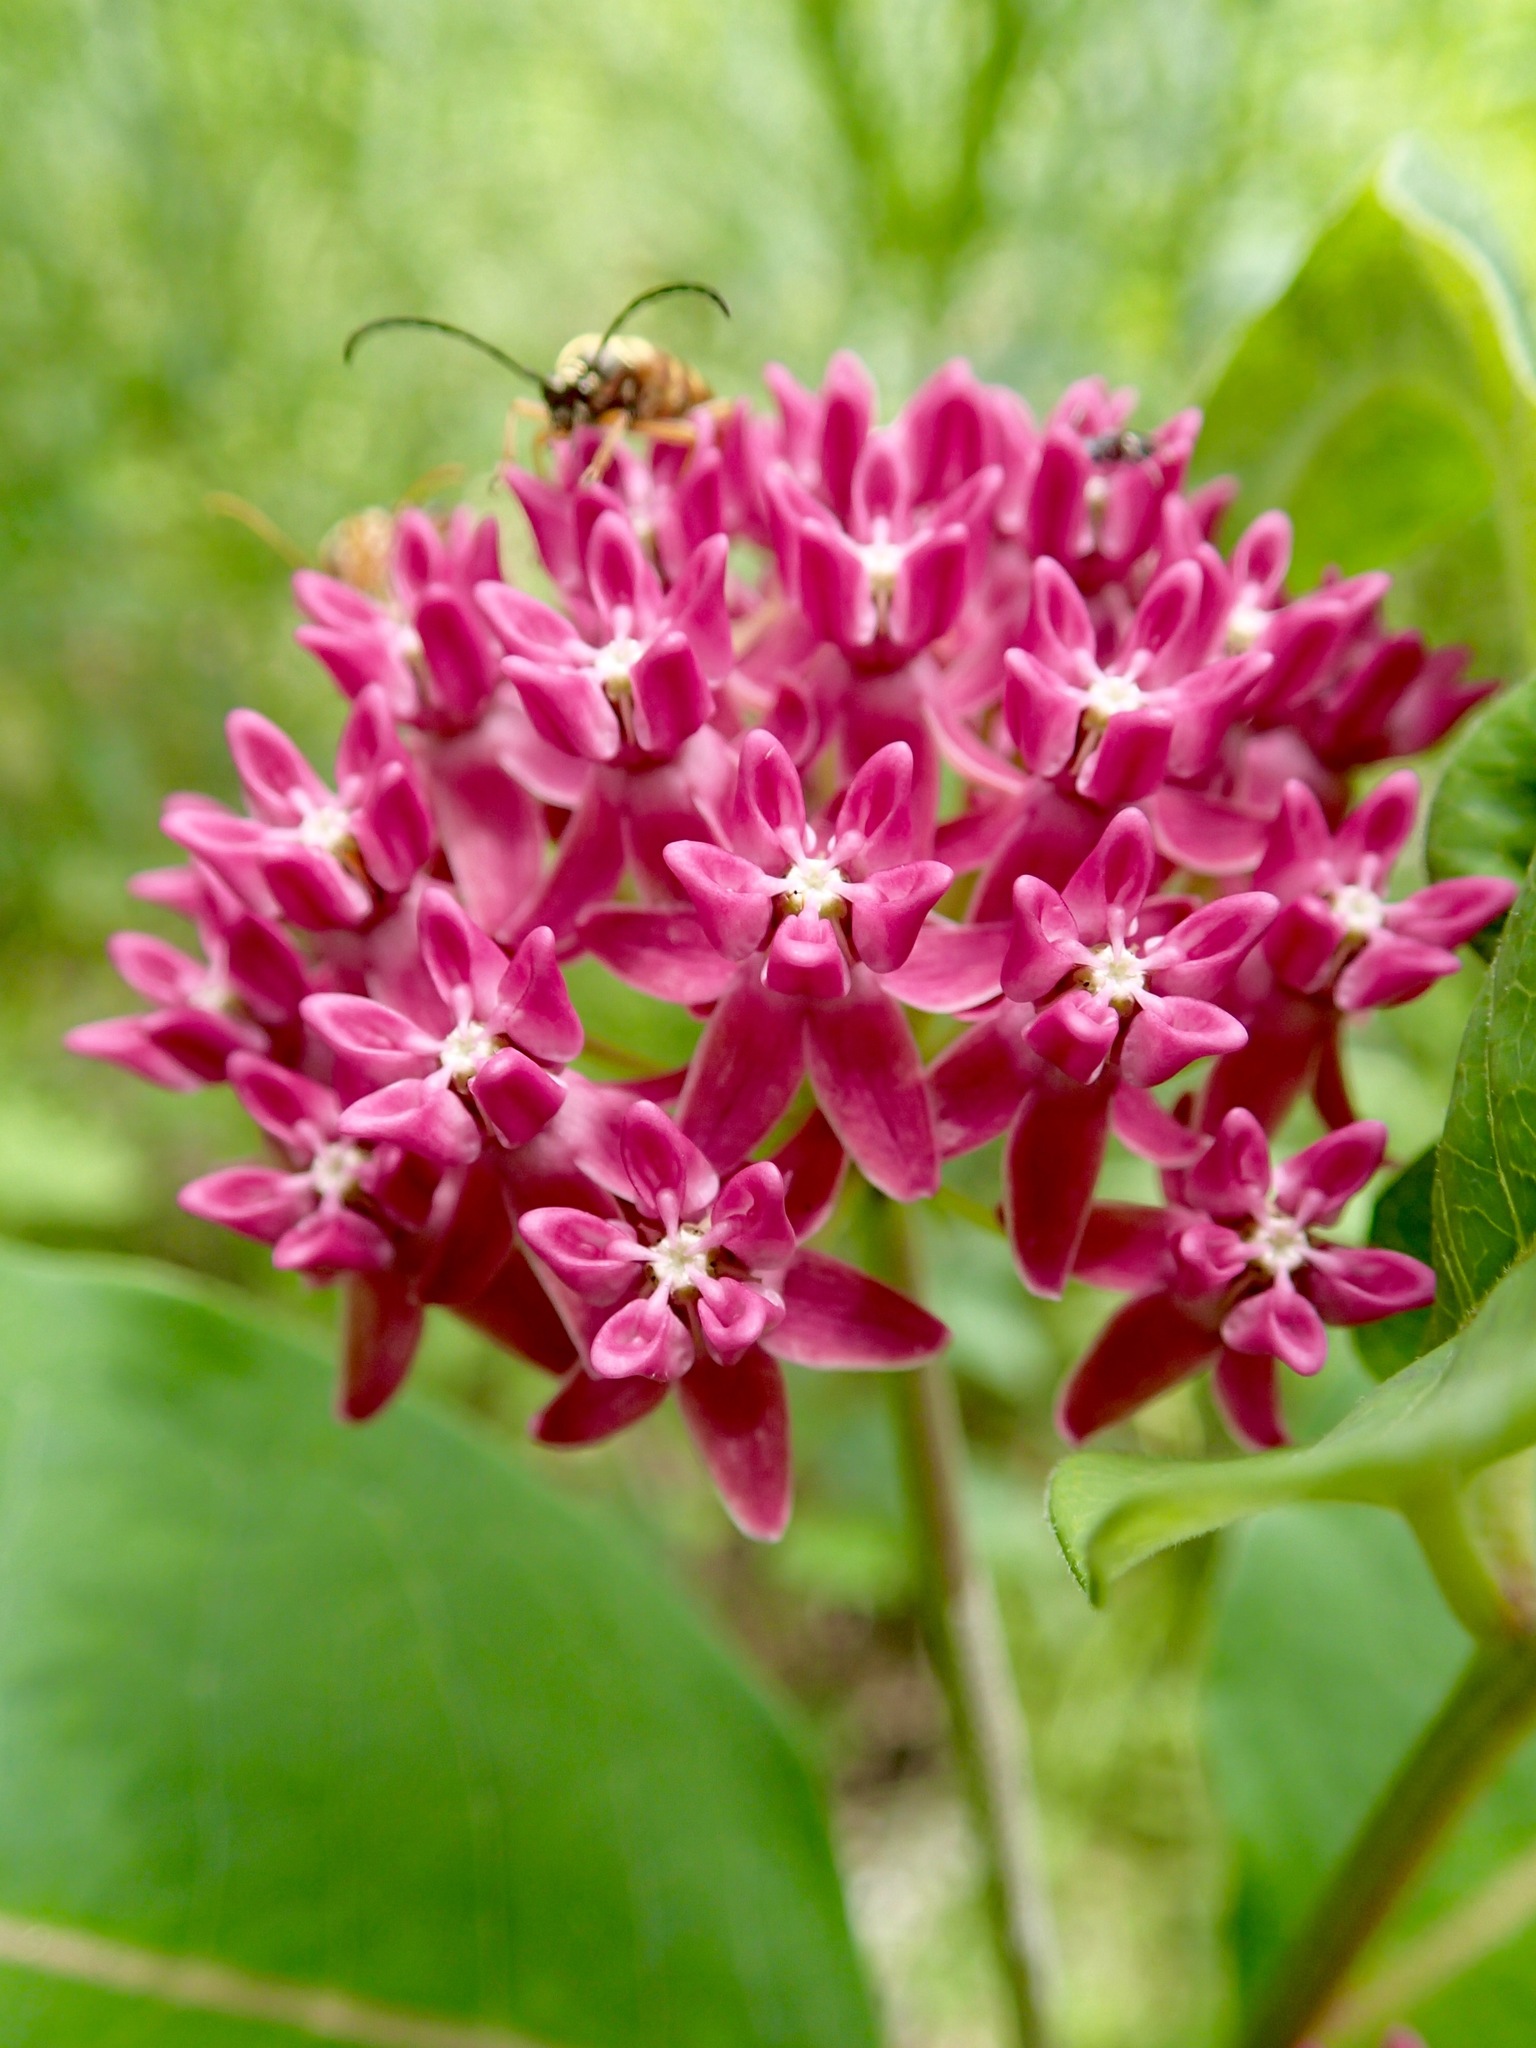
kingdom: Plantae
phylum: Tracheophyta
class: Magnoliopsida
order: Gentianales
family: Apocynaceae
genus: Asclepias
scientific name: Asclepias purpurascens
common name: Purple milkweed
